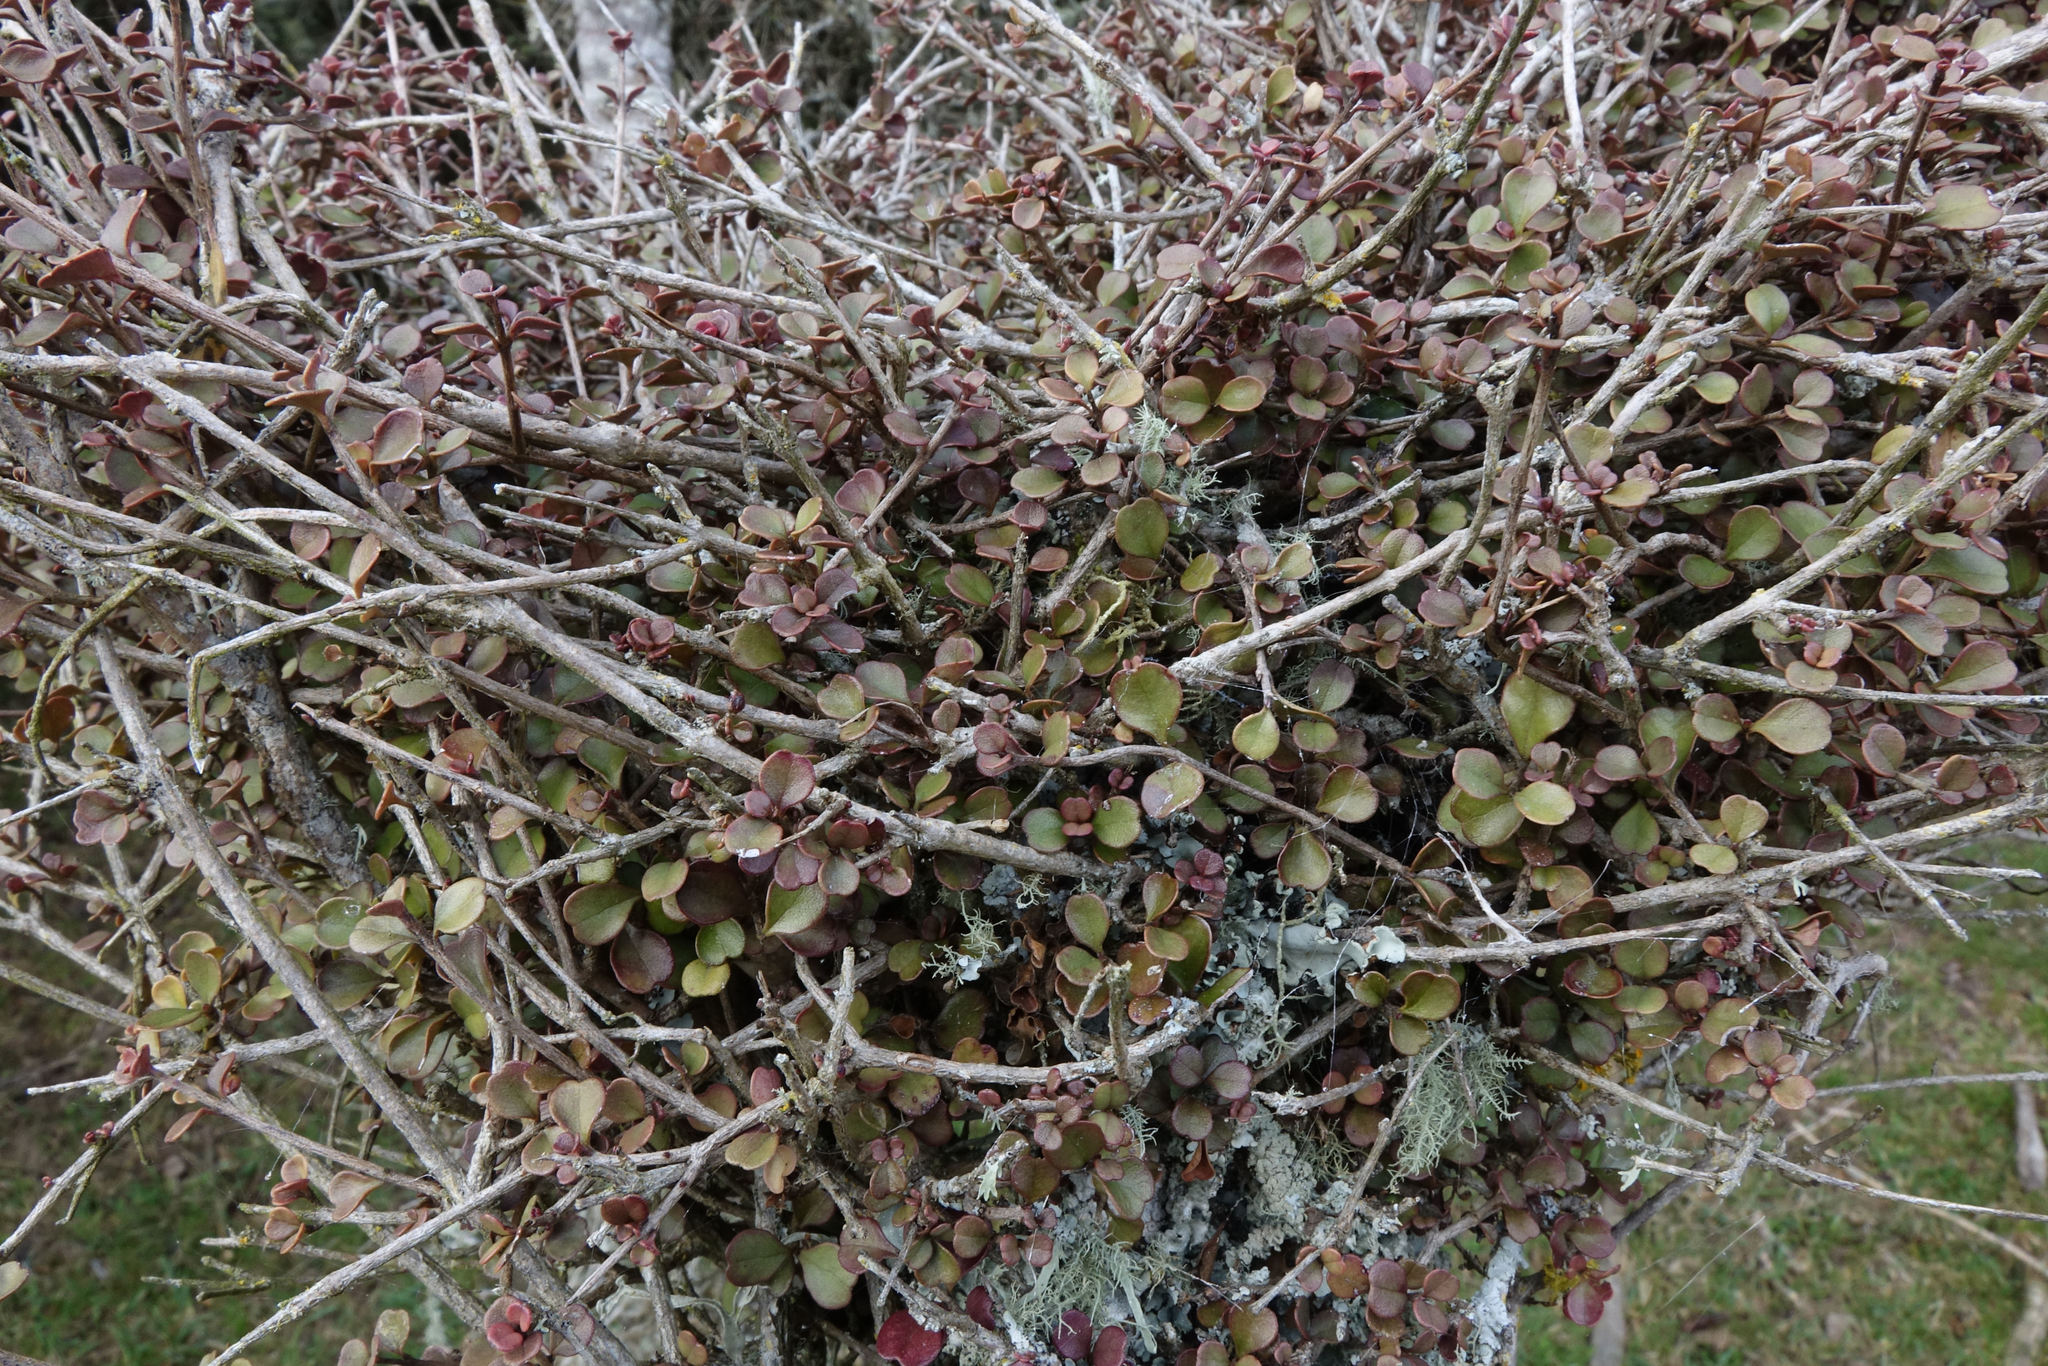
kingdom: Plantae
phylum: Tracheophyta
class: Magnoliopsida
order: Myrtales
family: Myrtaceae
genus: Lophomyrtus
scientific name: Lophomyrtus obcordata
